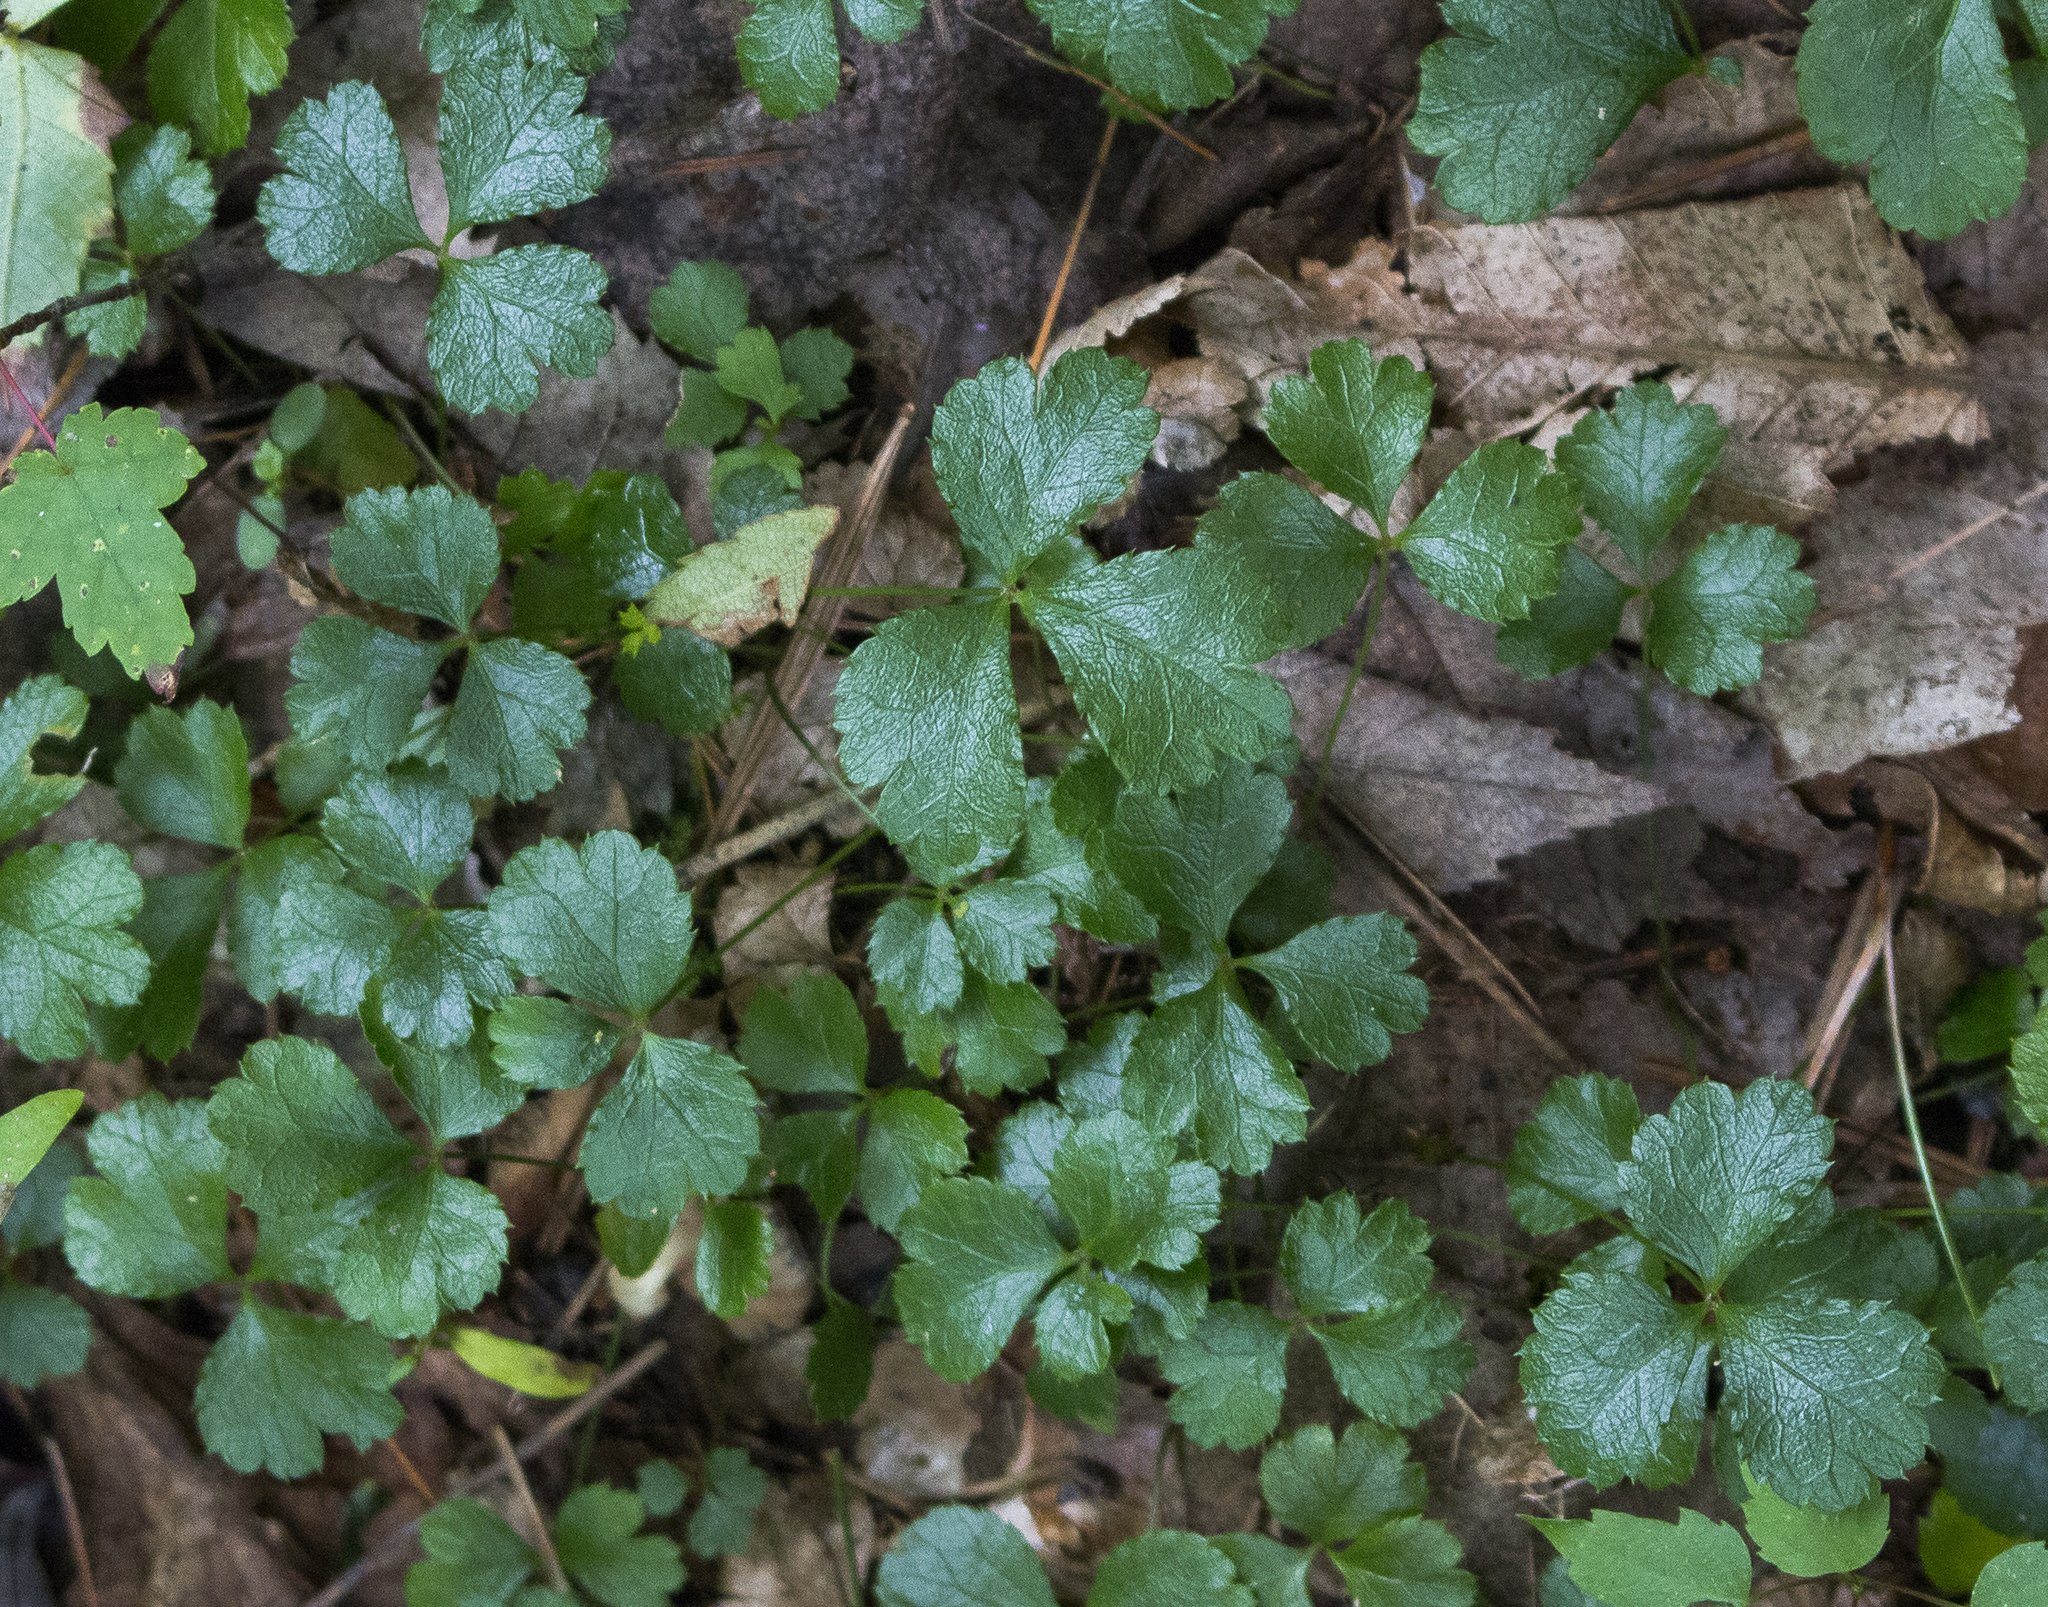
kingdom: Plantae
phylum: Tracheophyta
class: Magnoliopsida
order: Ranunculales
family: Ranunculaceae
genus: Coptis
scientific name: Coptis trifolia
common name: Canker-root
